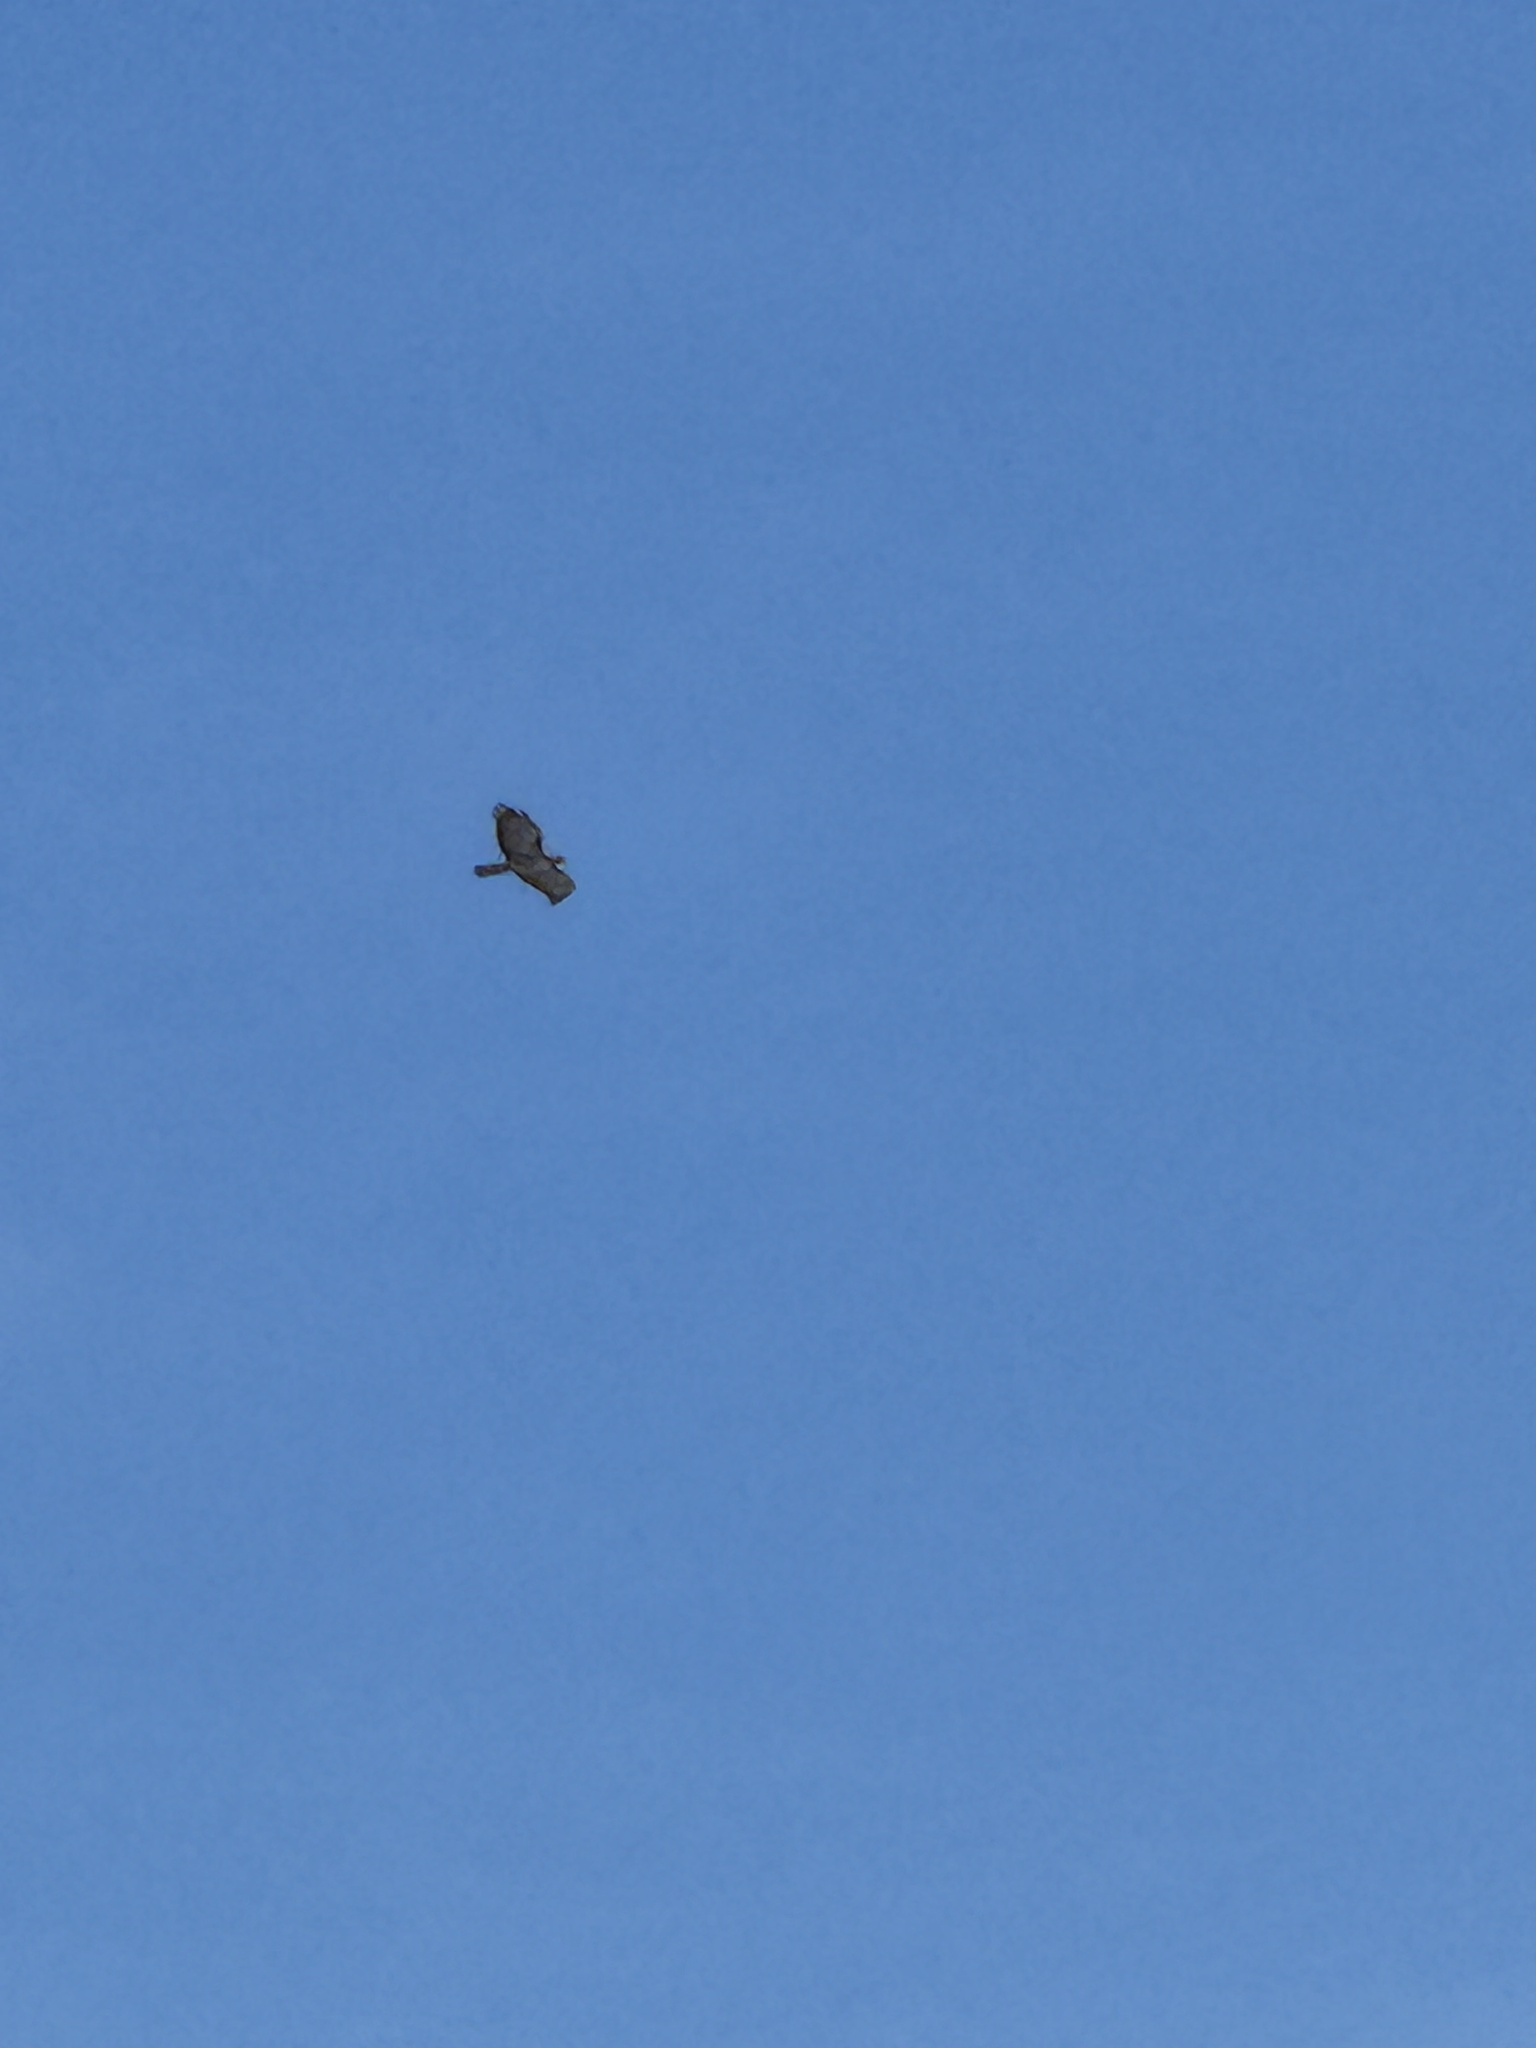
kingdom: Animalia
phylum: Chordata
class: Aves
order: Accipitriformes
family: Accipitridae
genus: Buteo
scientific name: Buteo jamaicensis
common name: Red-tailed hawk
